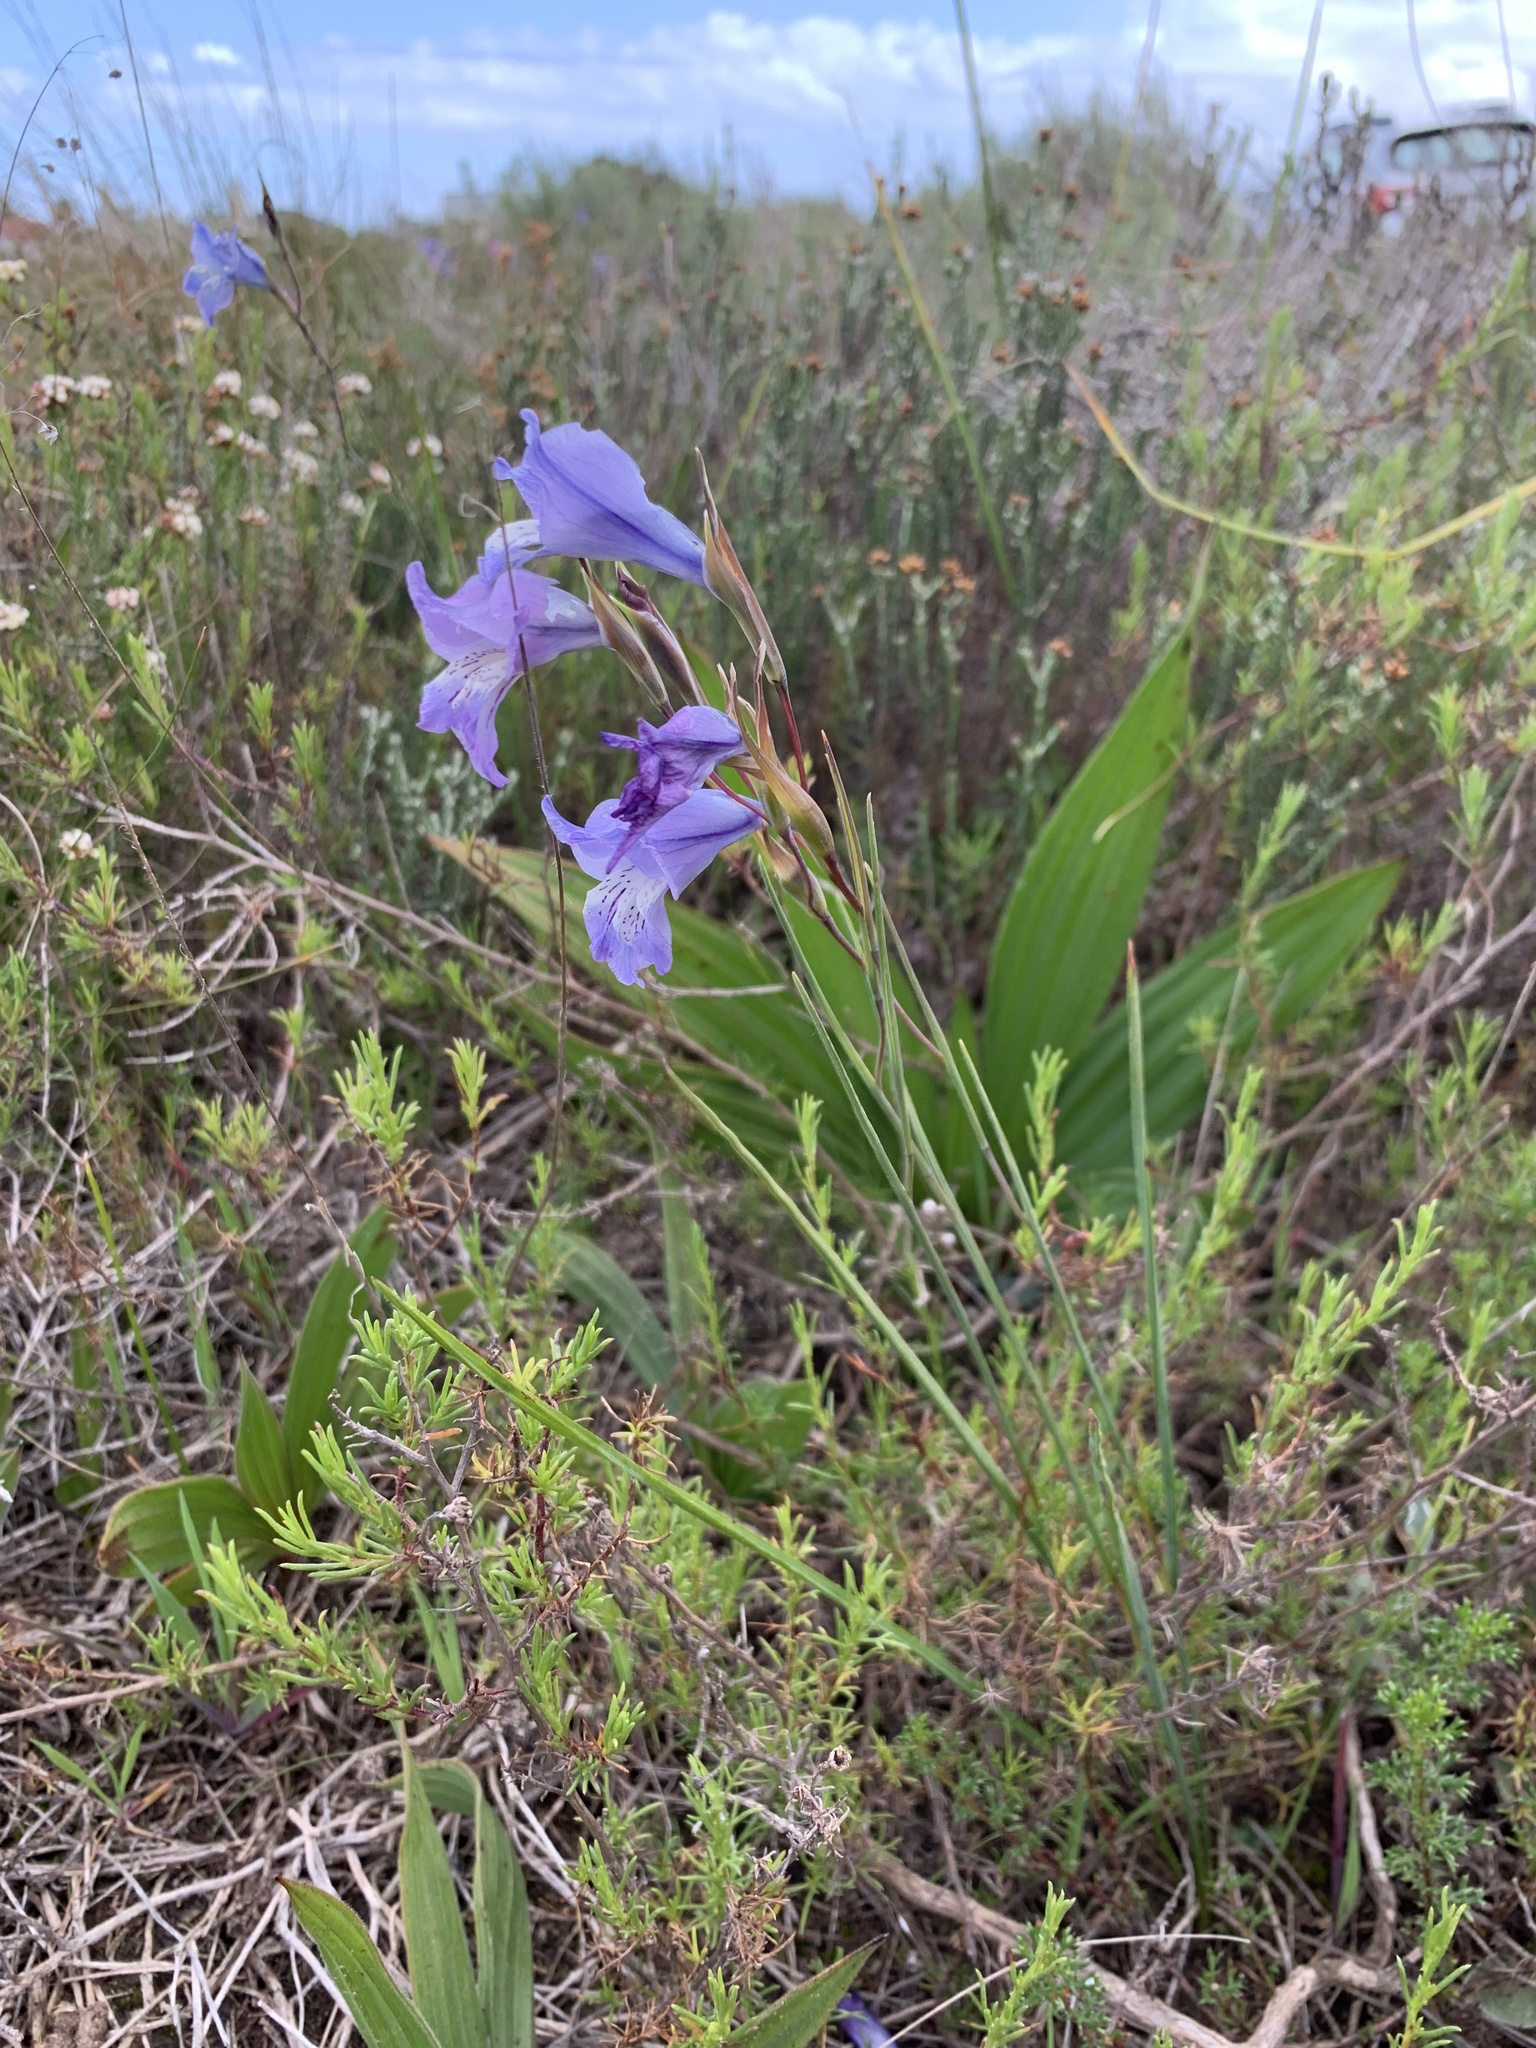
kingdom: Plantae
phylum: Tracheophyta
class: Liliopsida
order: Asparagales
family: Iridaceae
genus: Gladiolus
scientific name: Gladiolus gracilis
